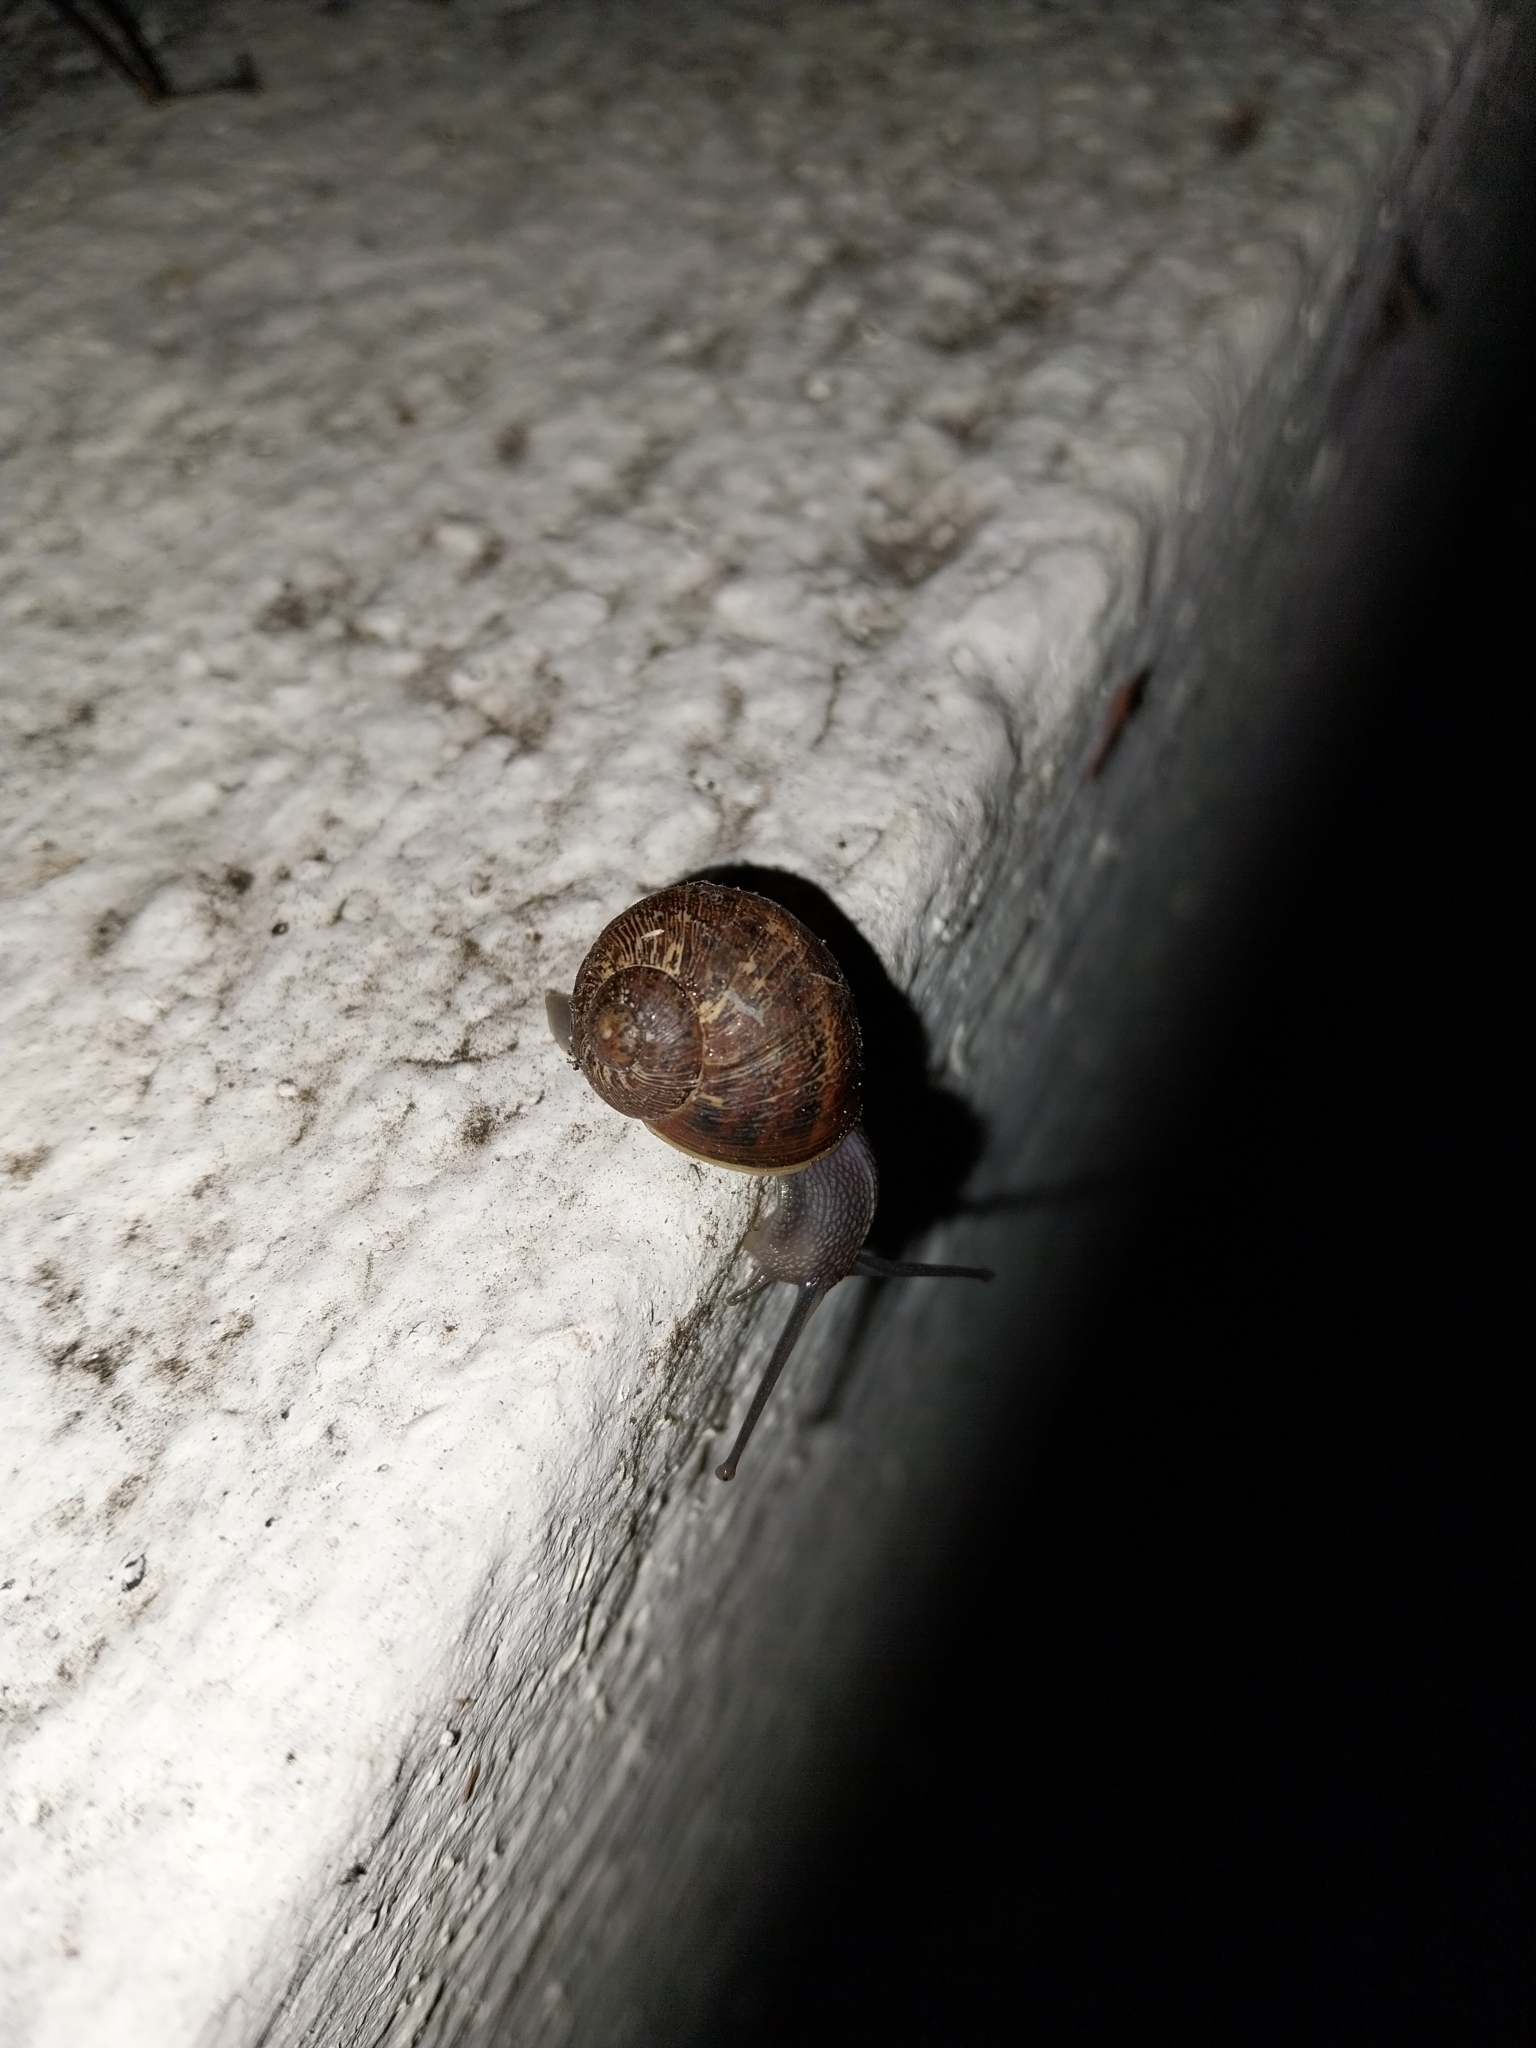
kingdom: Animalia
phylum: Mollusca
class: Gastropoda
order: Stylommatophora
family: Helicidae
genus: Cornu
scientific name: Cornu aspersum
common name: Brown garden snail
